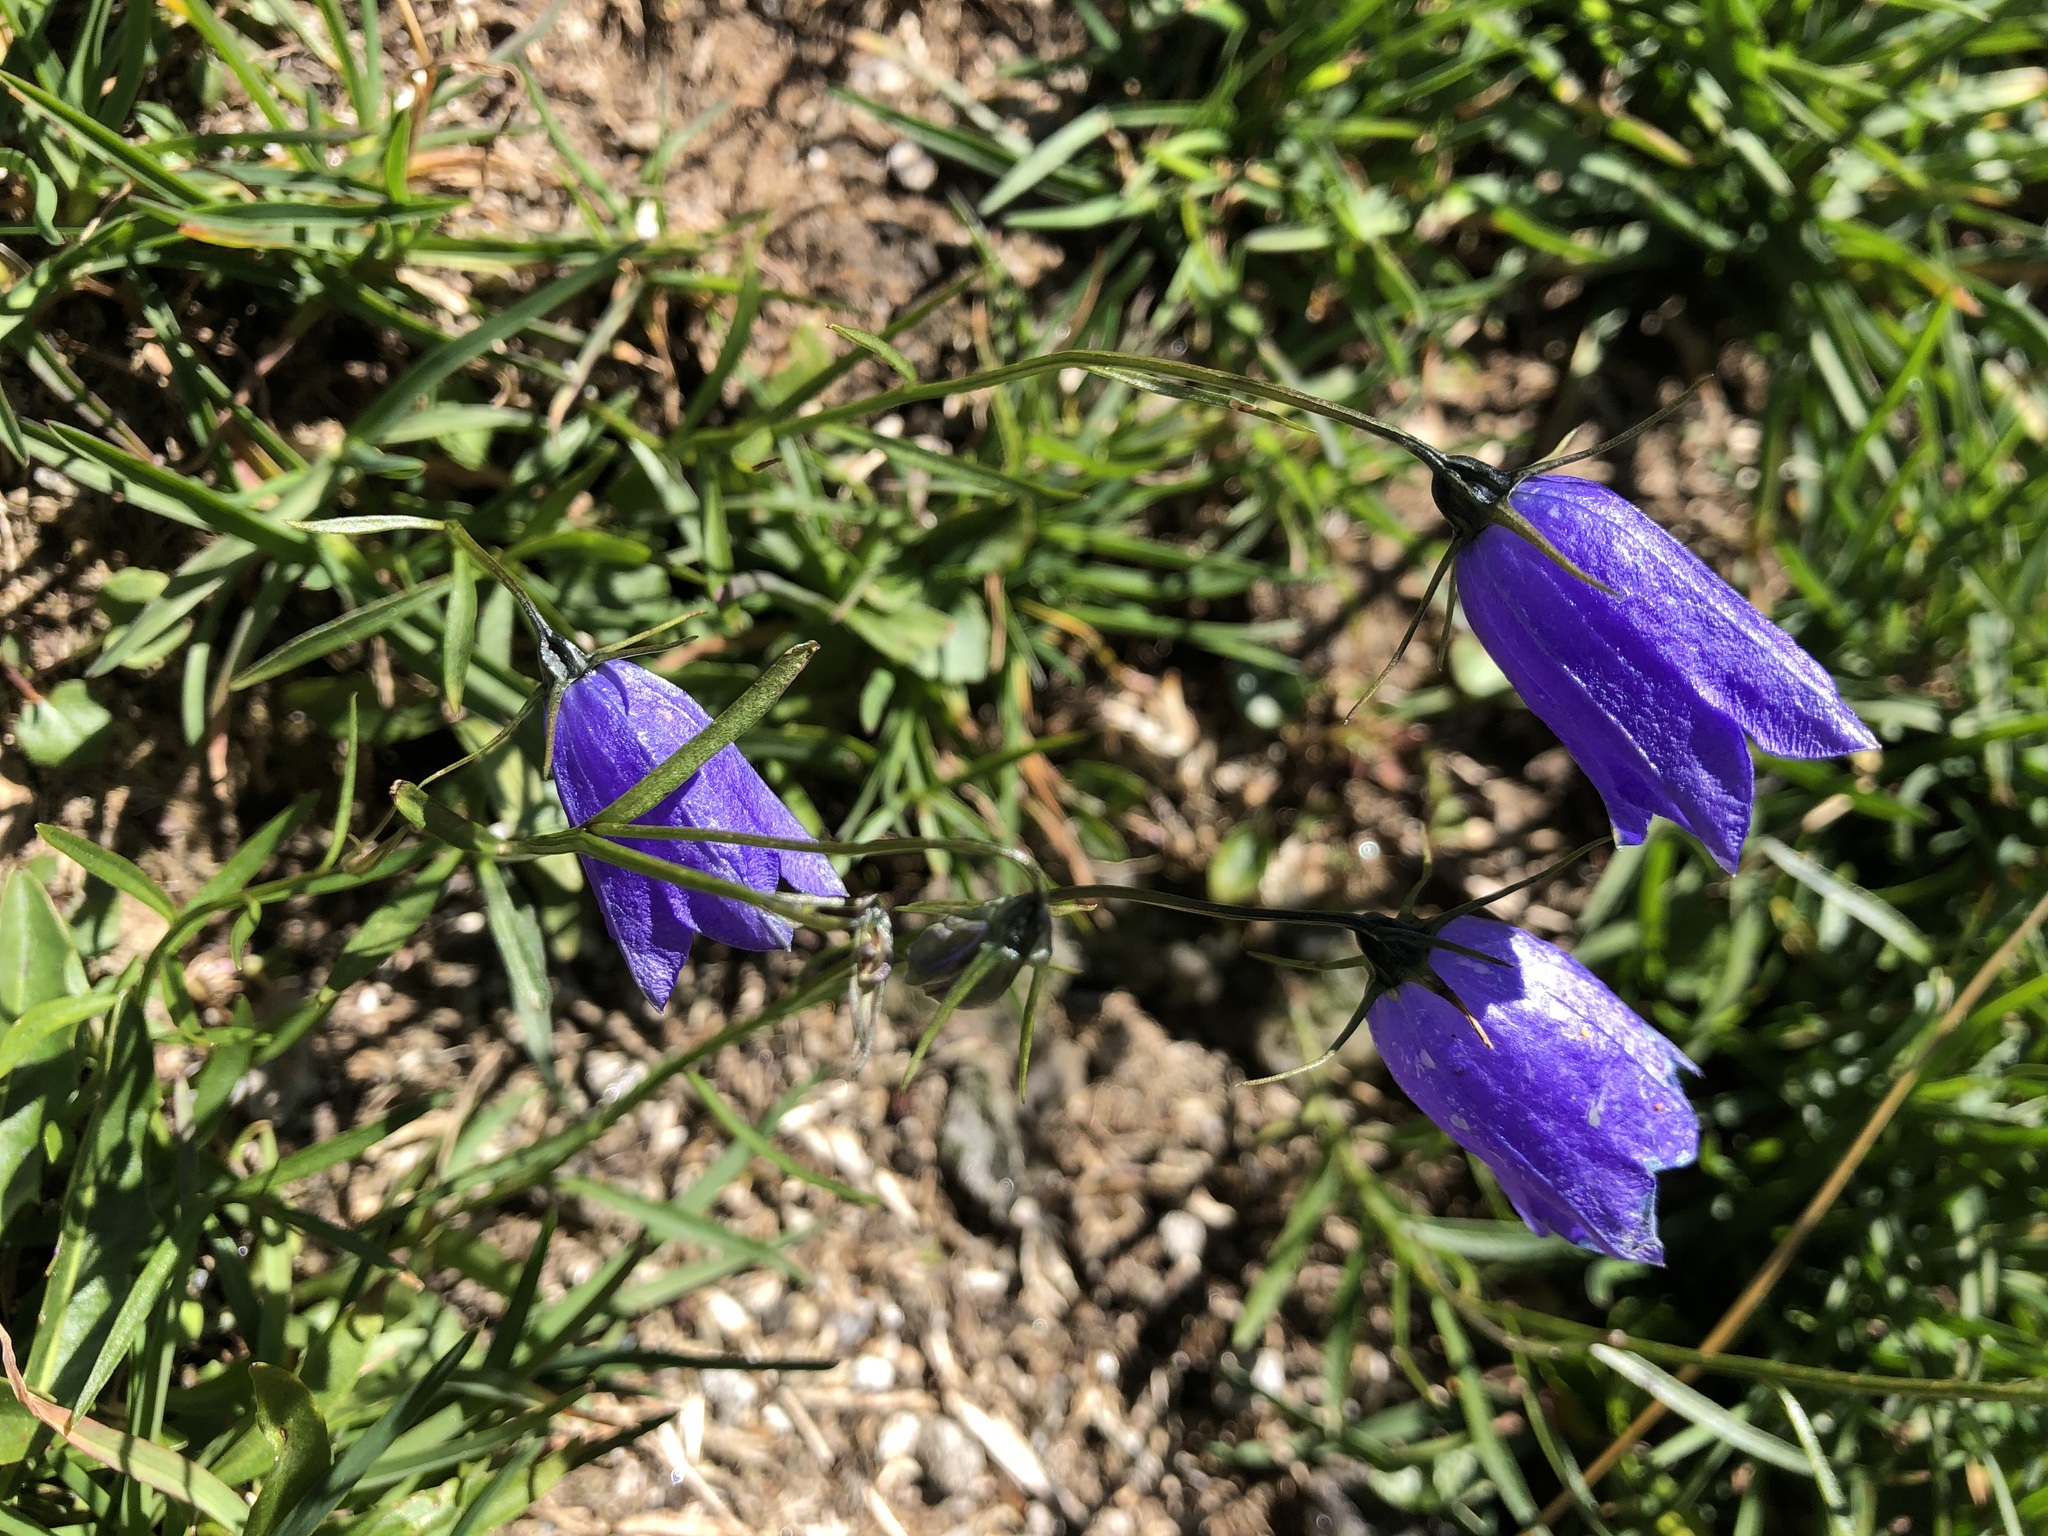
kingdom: Plantae
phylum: Tracheophyta
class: Magnoliopsida
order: Asterales
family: Campanulaceae
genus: Campanula
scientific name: Campanula scheuchzeri
